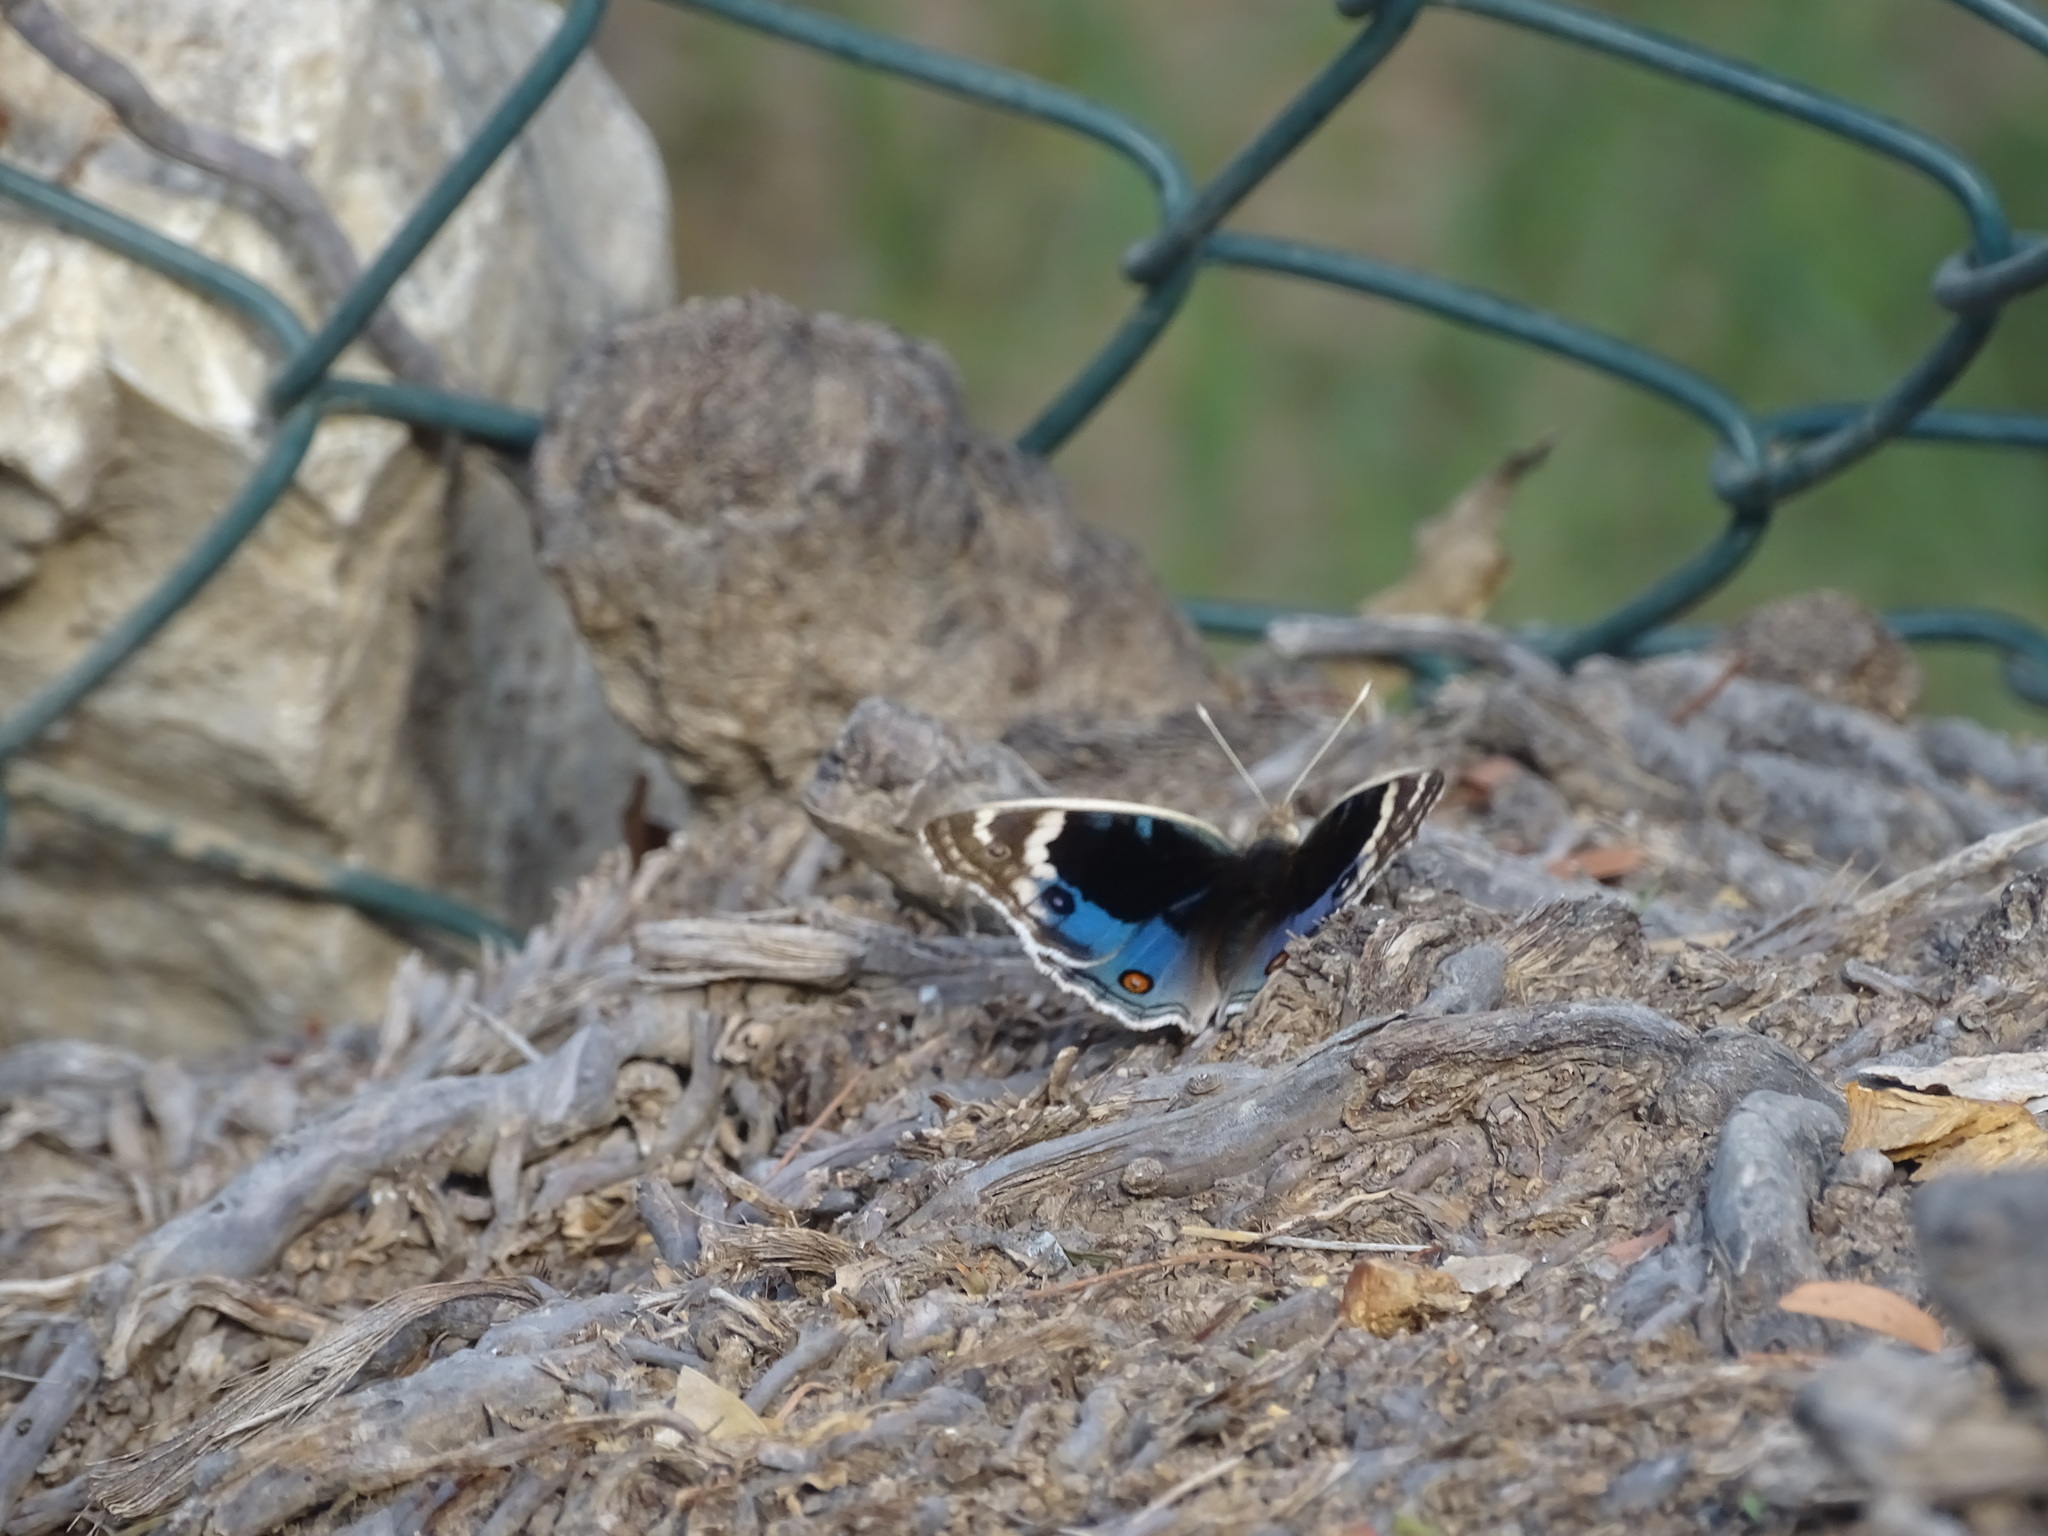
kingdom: Animalia
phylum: Arthropoda
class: Insecta
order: Lepidoptera
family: Nymphalidae
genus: Junonia
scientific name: Junonia orithya
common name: Blue pansy
